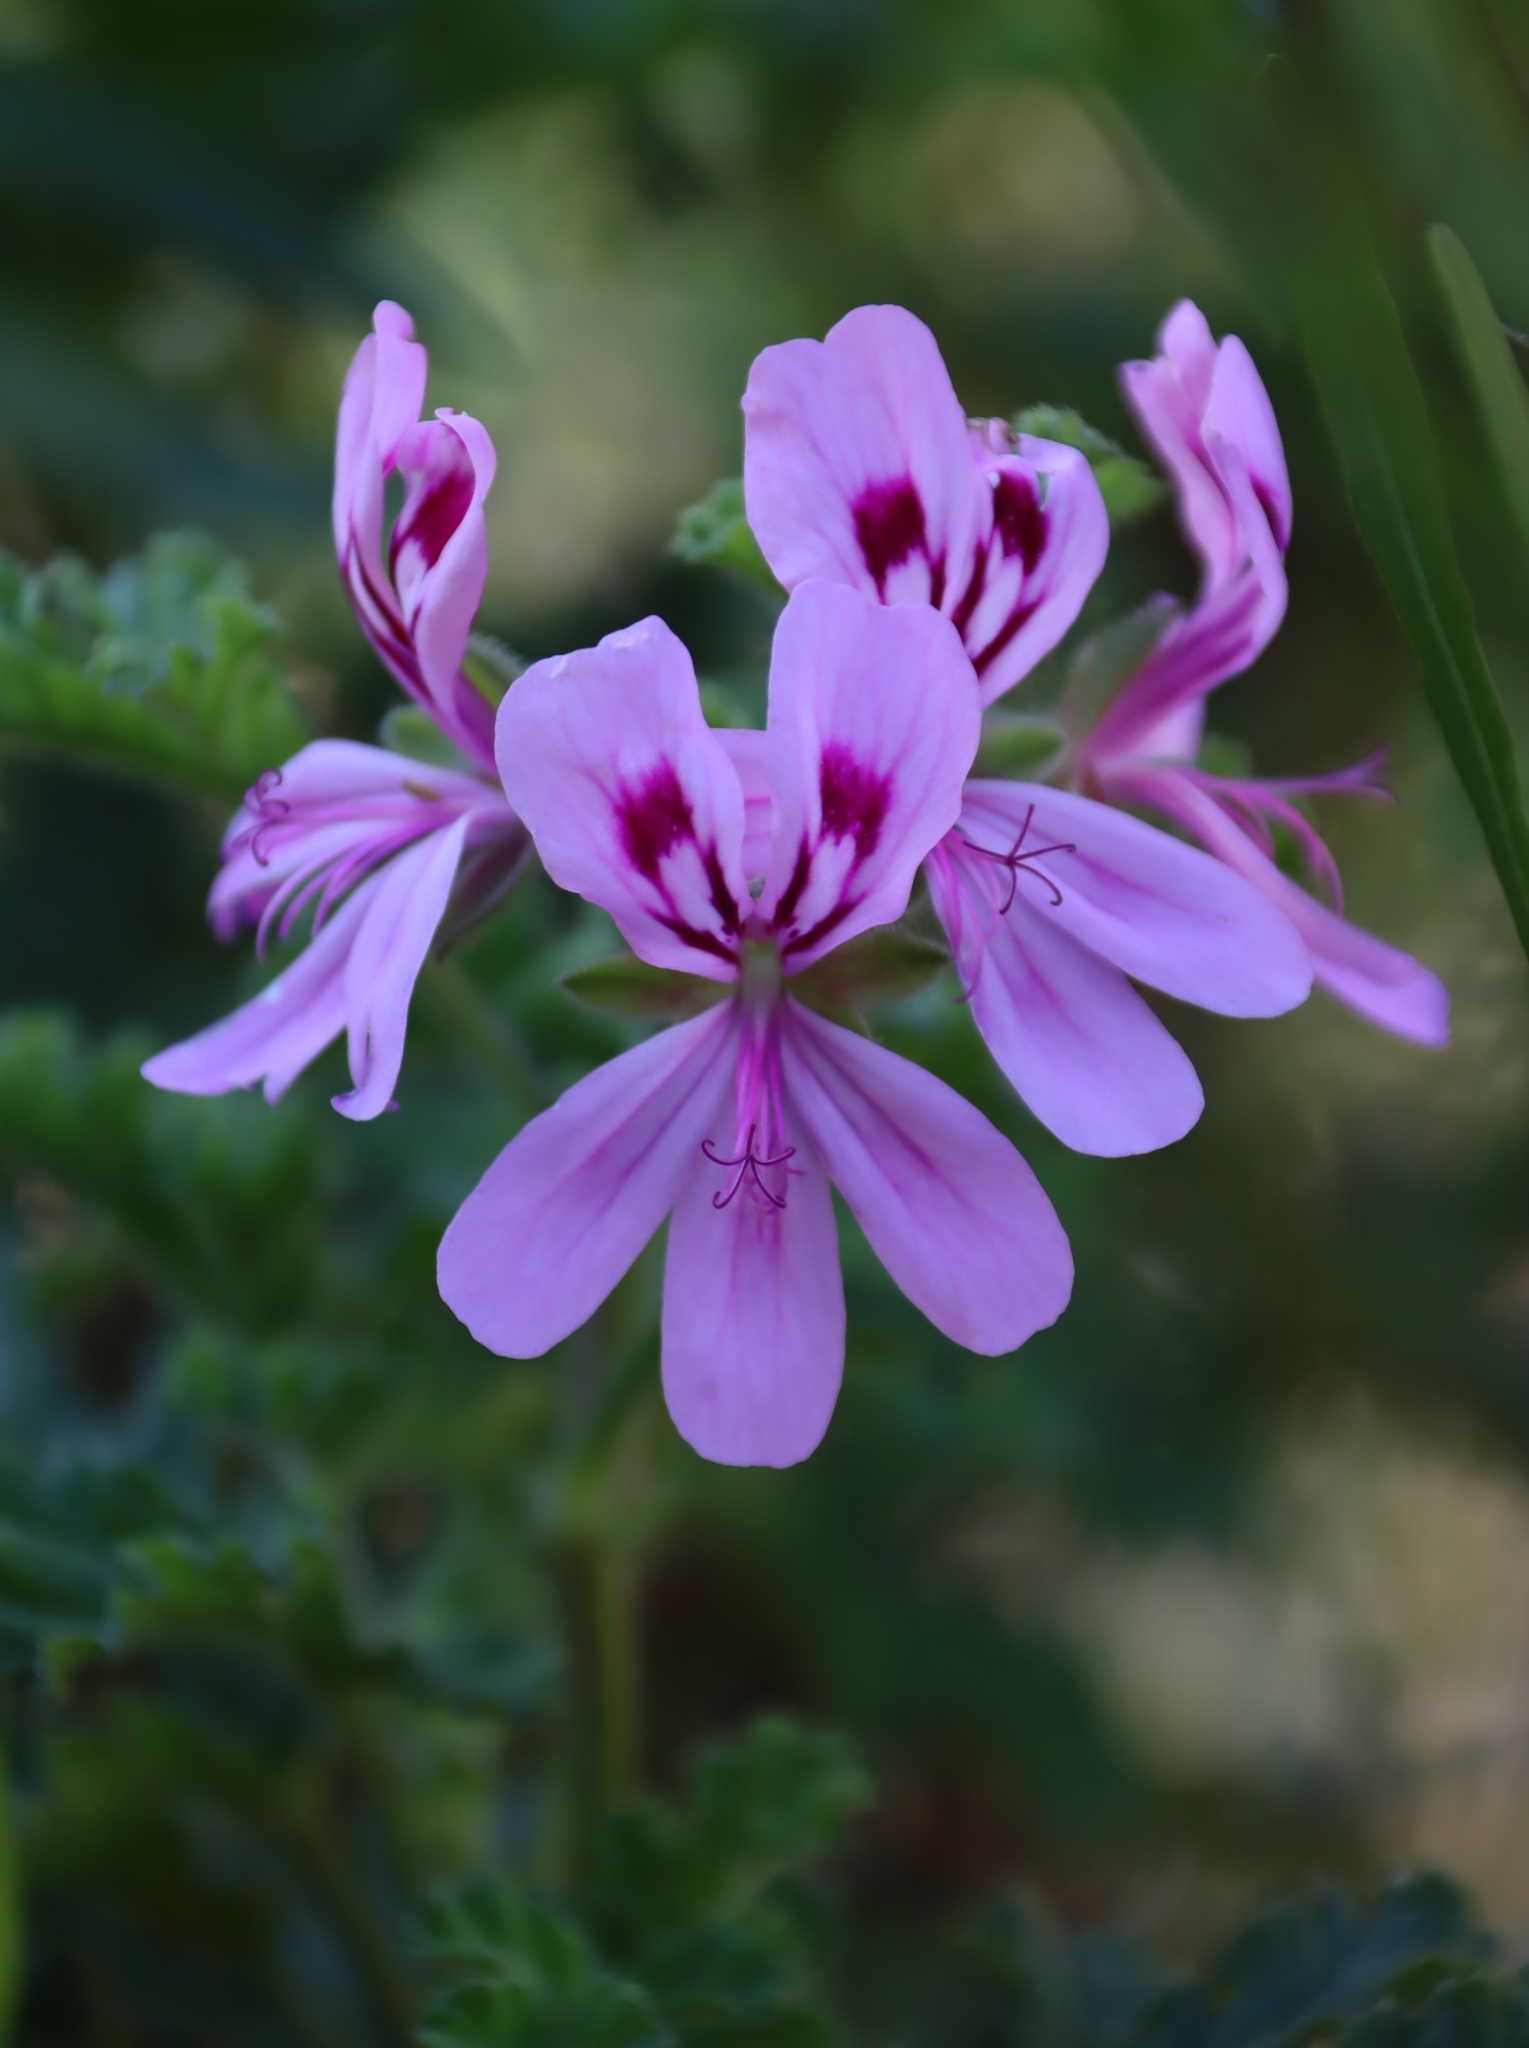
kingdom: Plantae
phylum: Tracheophyta
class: Magnoliopsida
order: Geraniales
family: Geraniaceae
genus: Pelargonium
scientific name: Pelargonium panduriforme
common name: Oakleaf garden geranium
